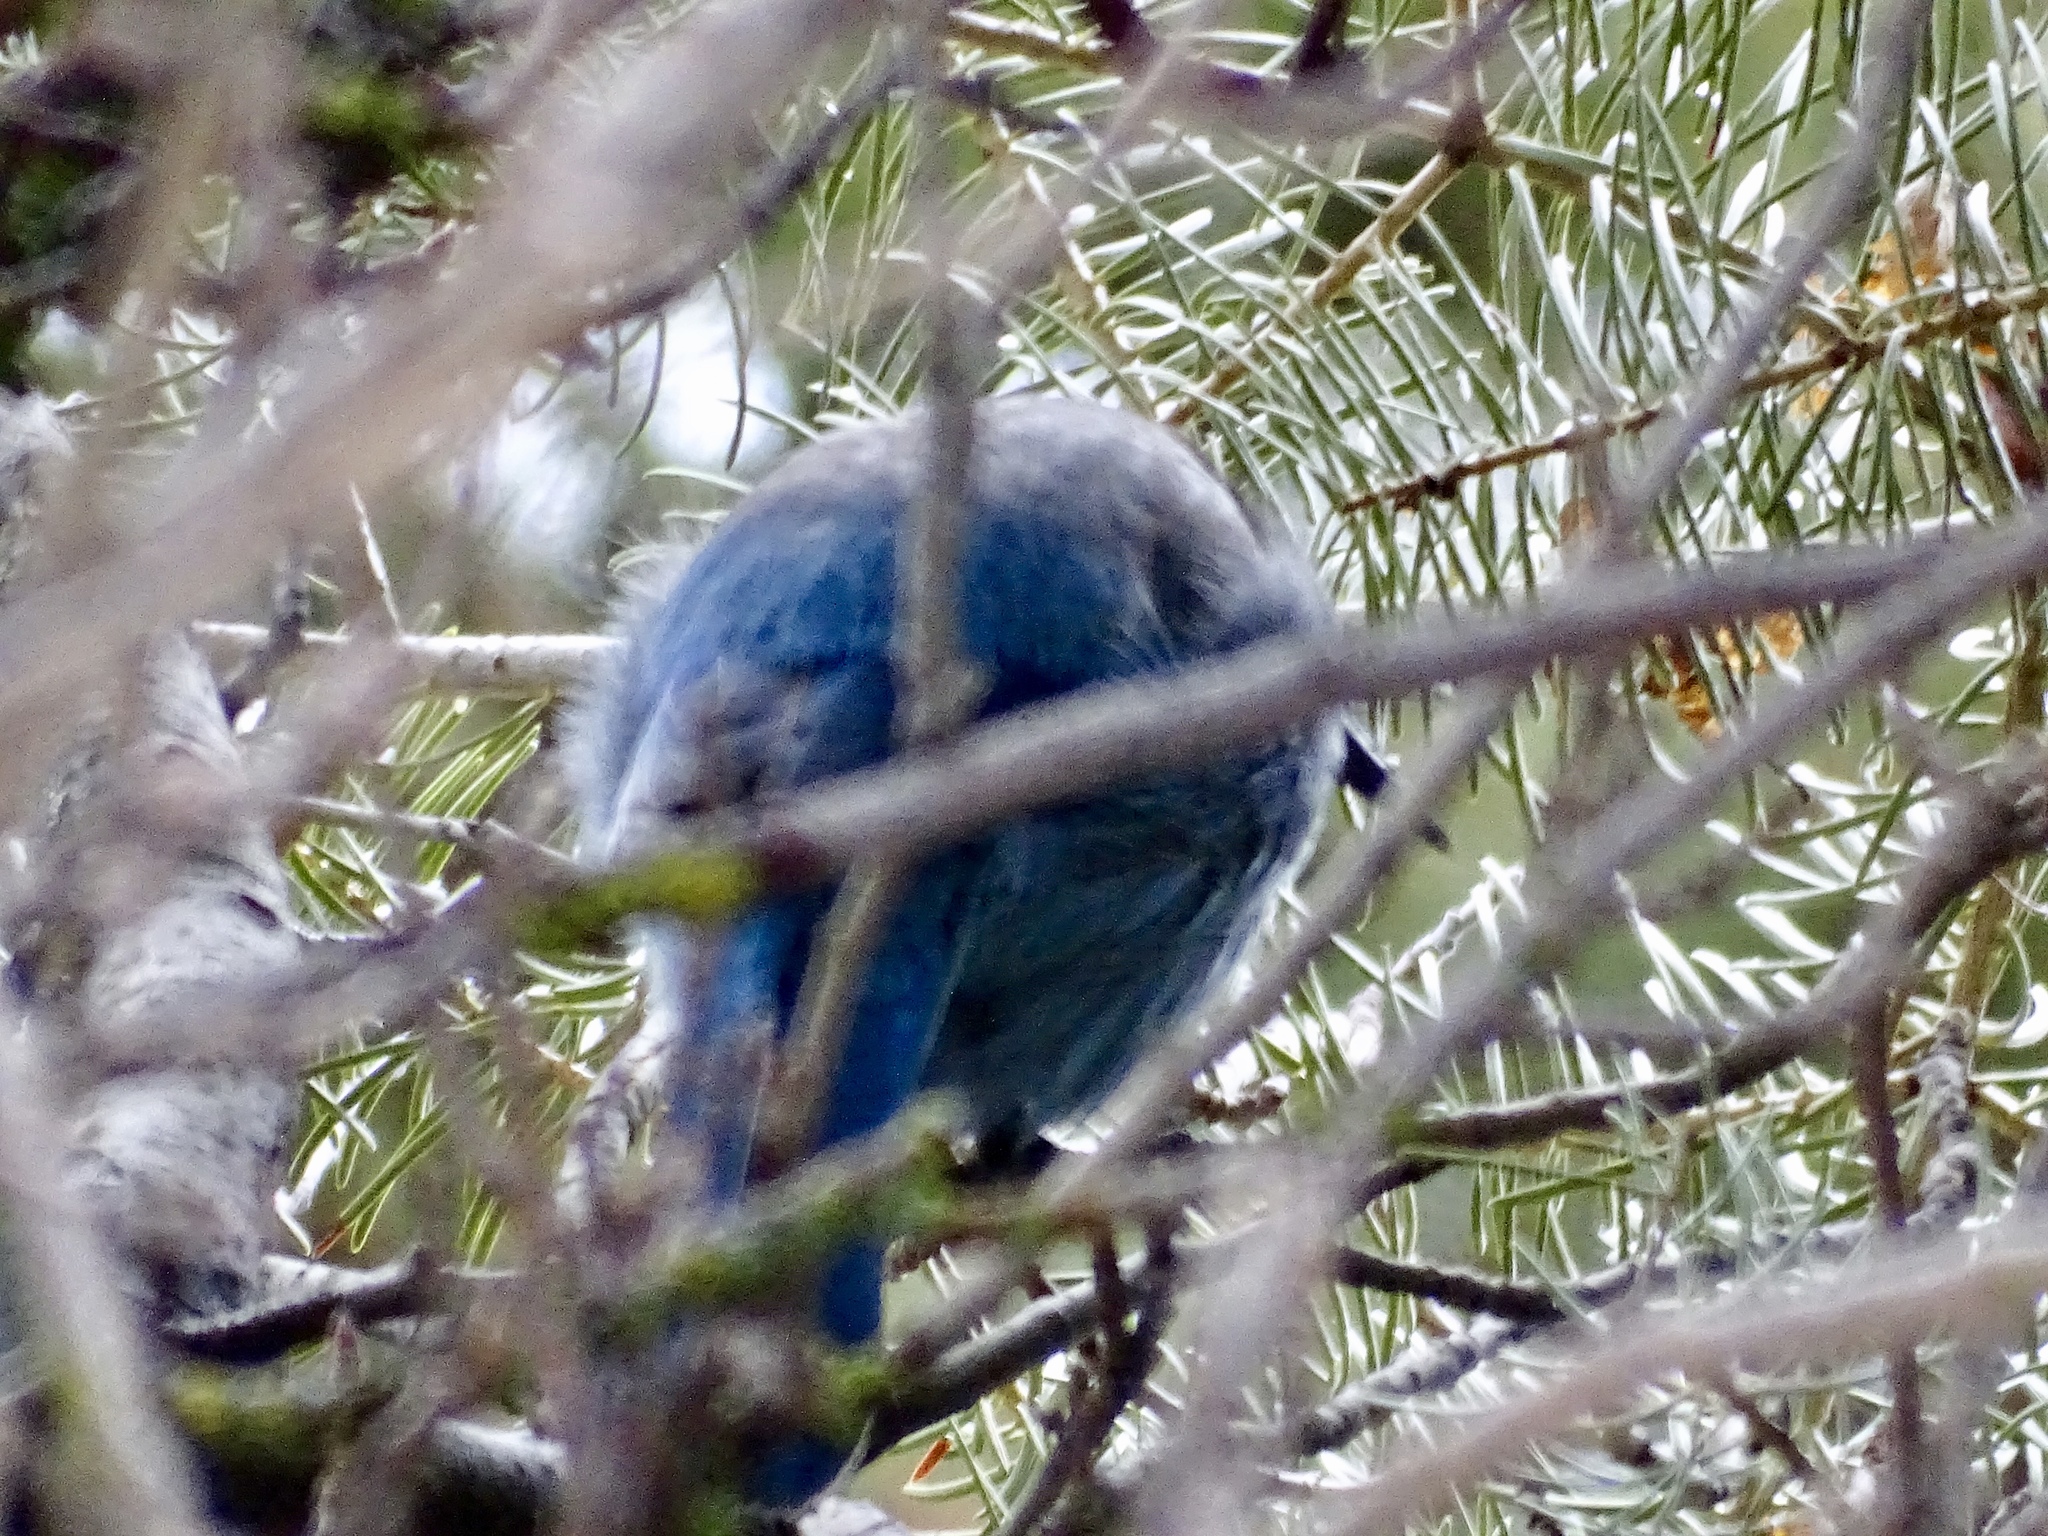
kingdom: Animalia
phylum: Chordata
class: Aves
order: Passeriformes
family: Corvidae
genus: Cyanocitta
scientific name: Cyanocitta stelleri
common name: Steller's jay
